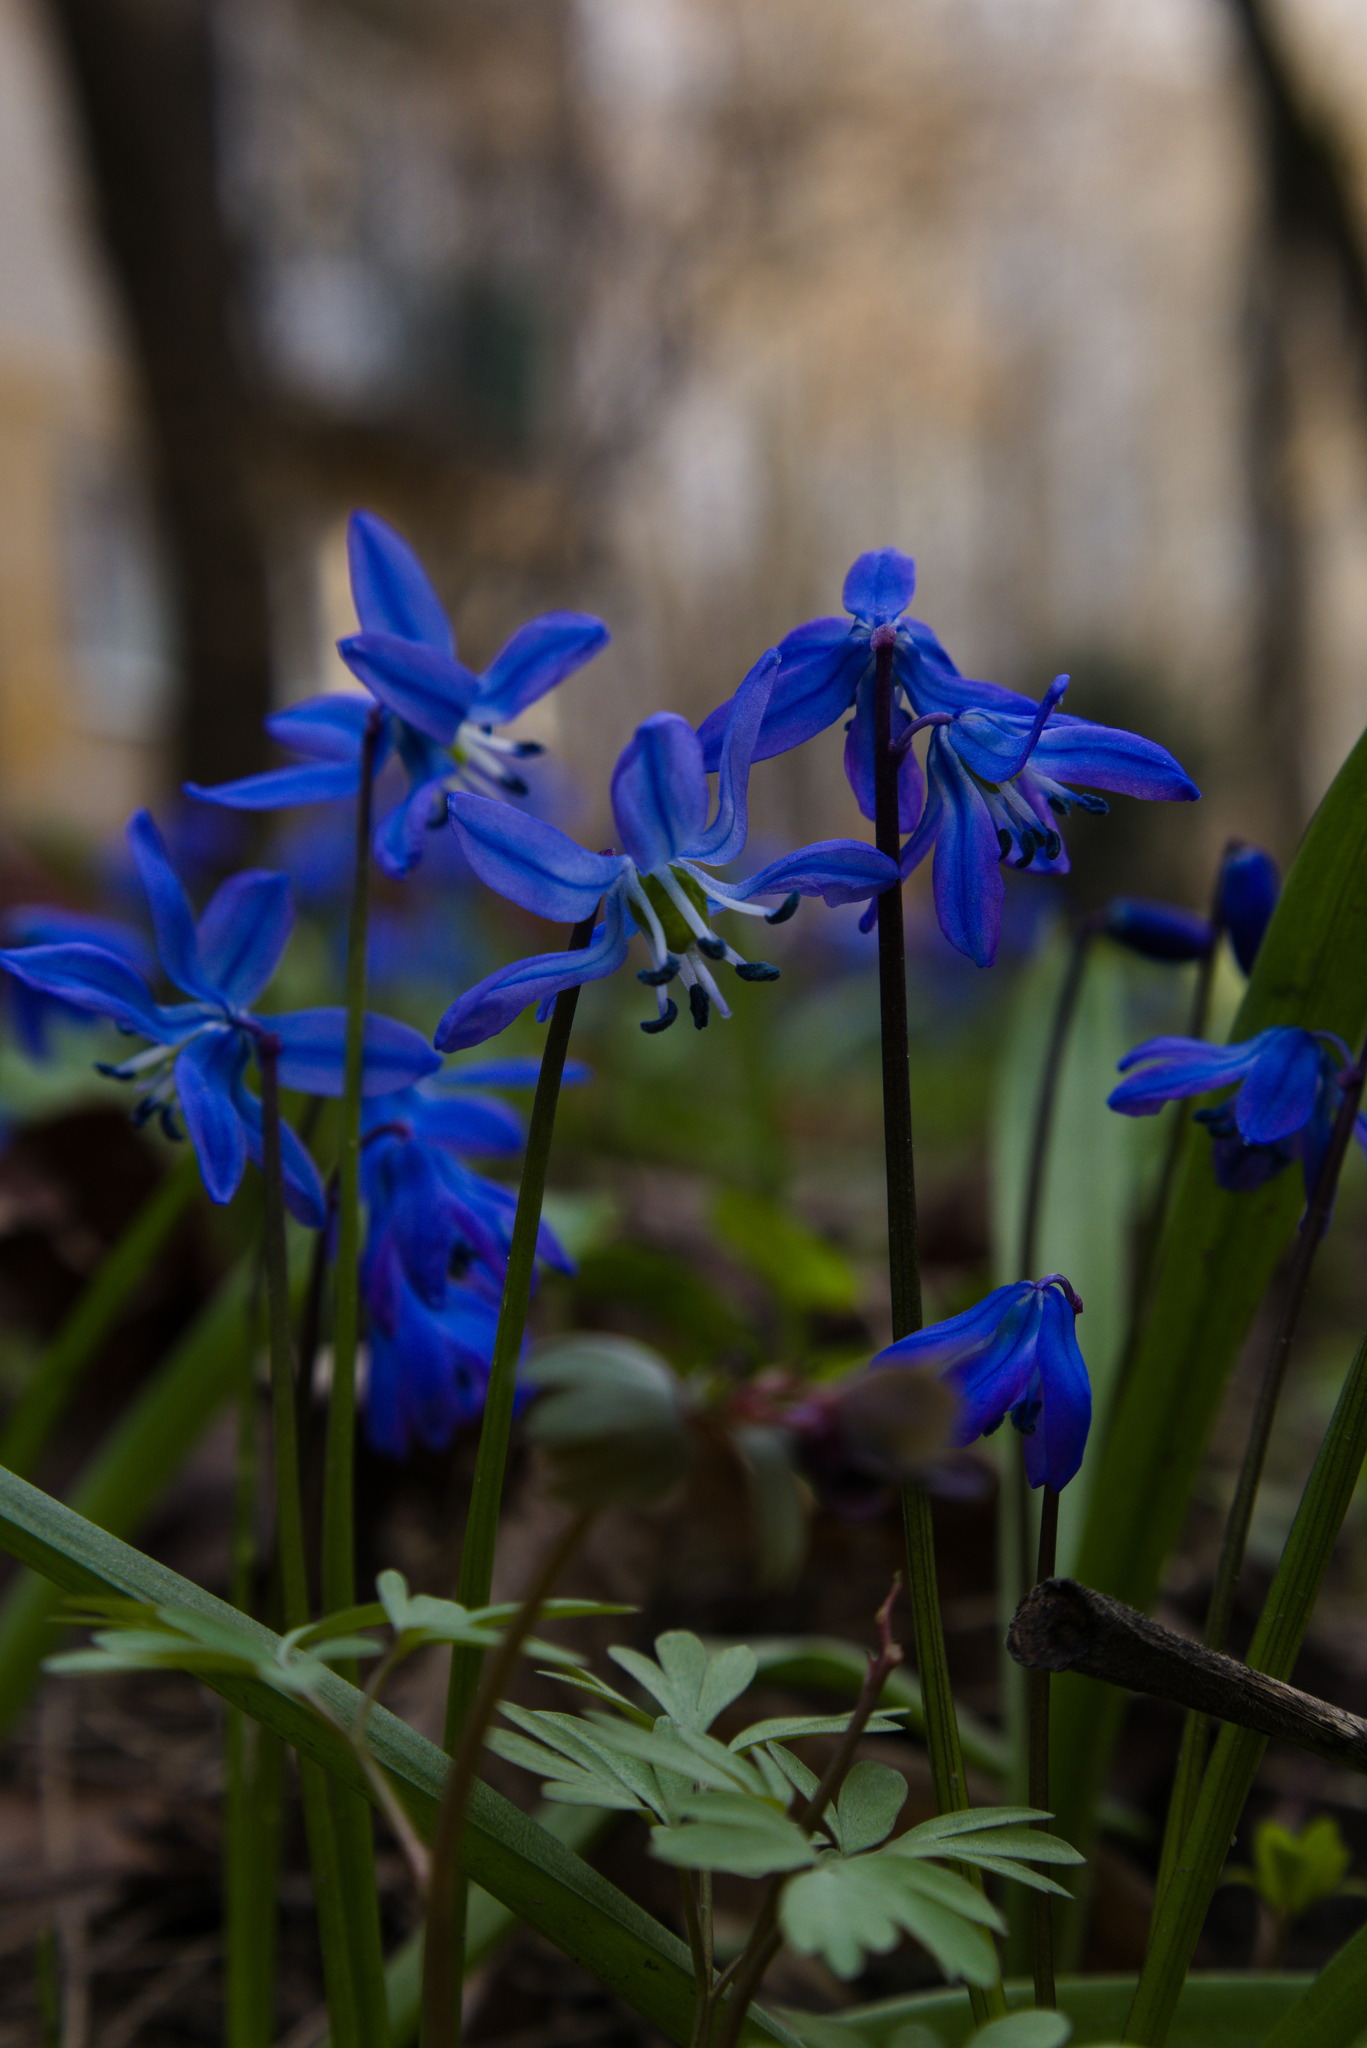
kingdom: Plantae
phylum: Tracheophyta
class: Liliopsida
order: Asparagales
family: Asparagaceae
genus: Scilla
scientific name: Scilla siberica
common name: Siberian squill
